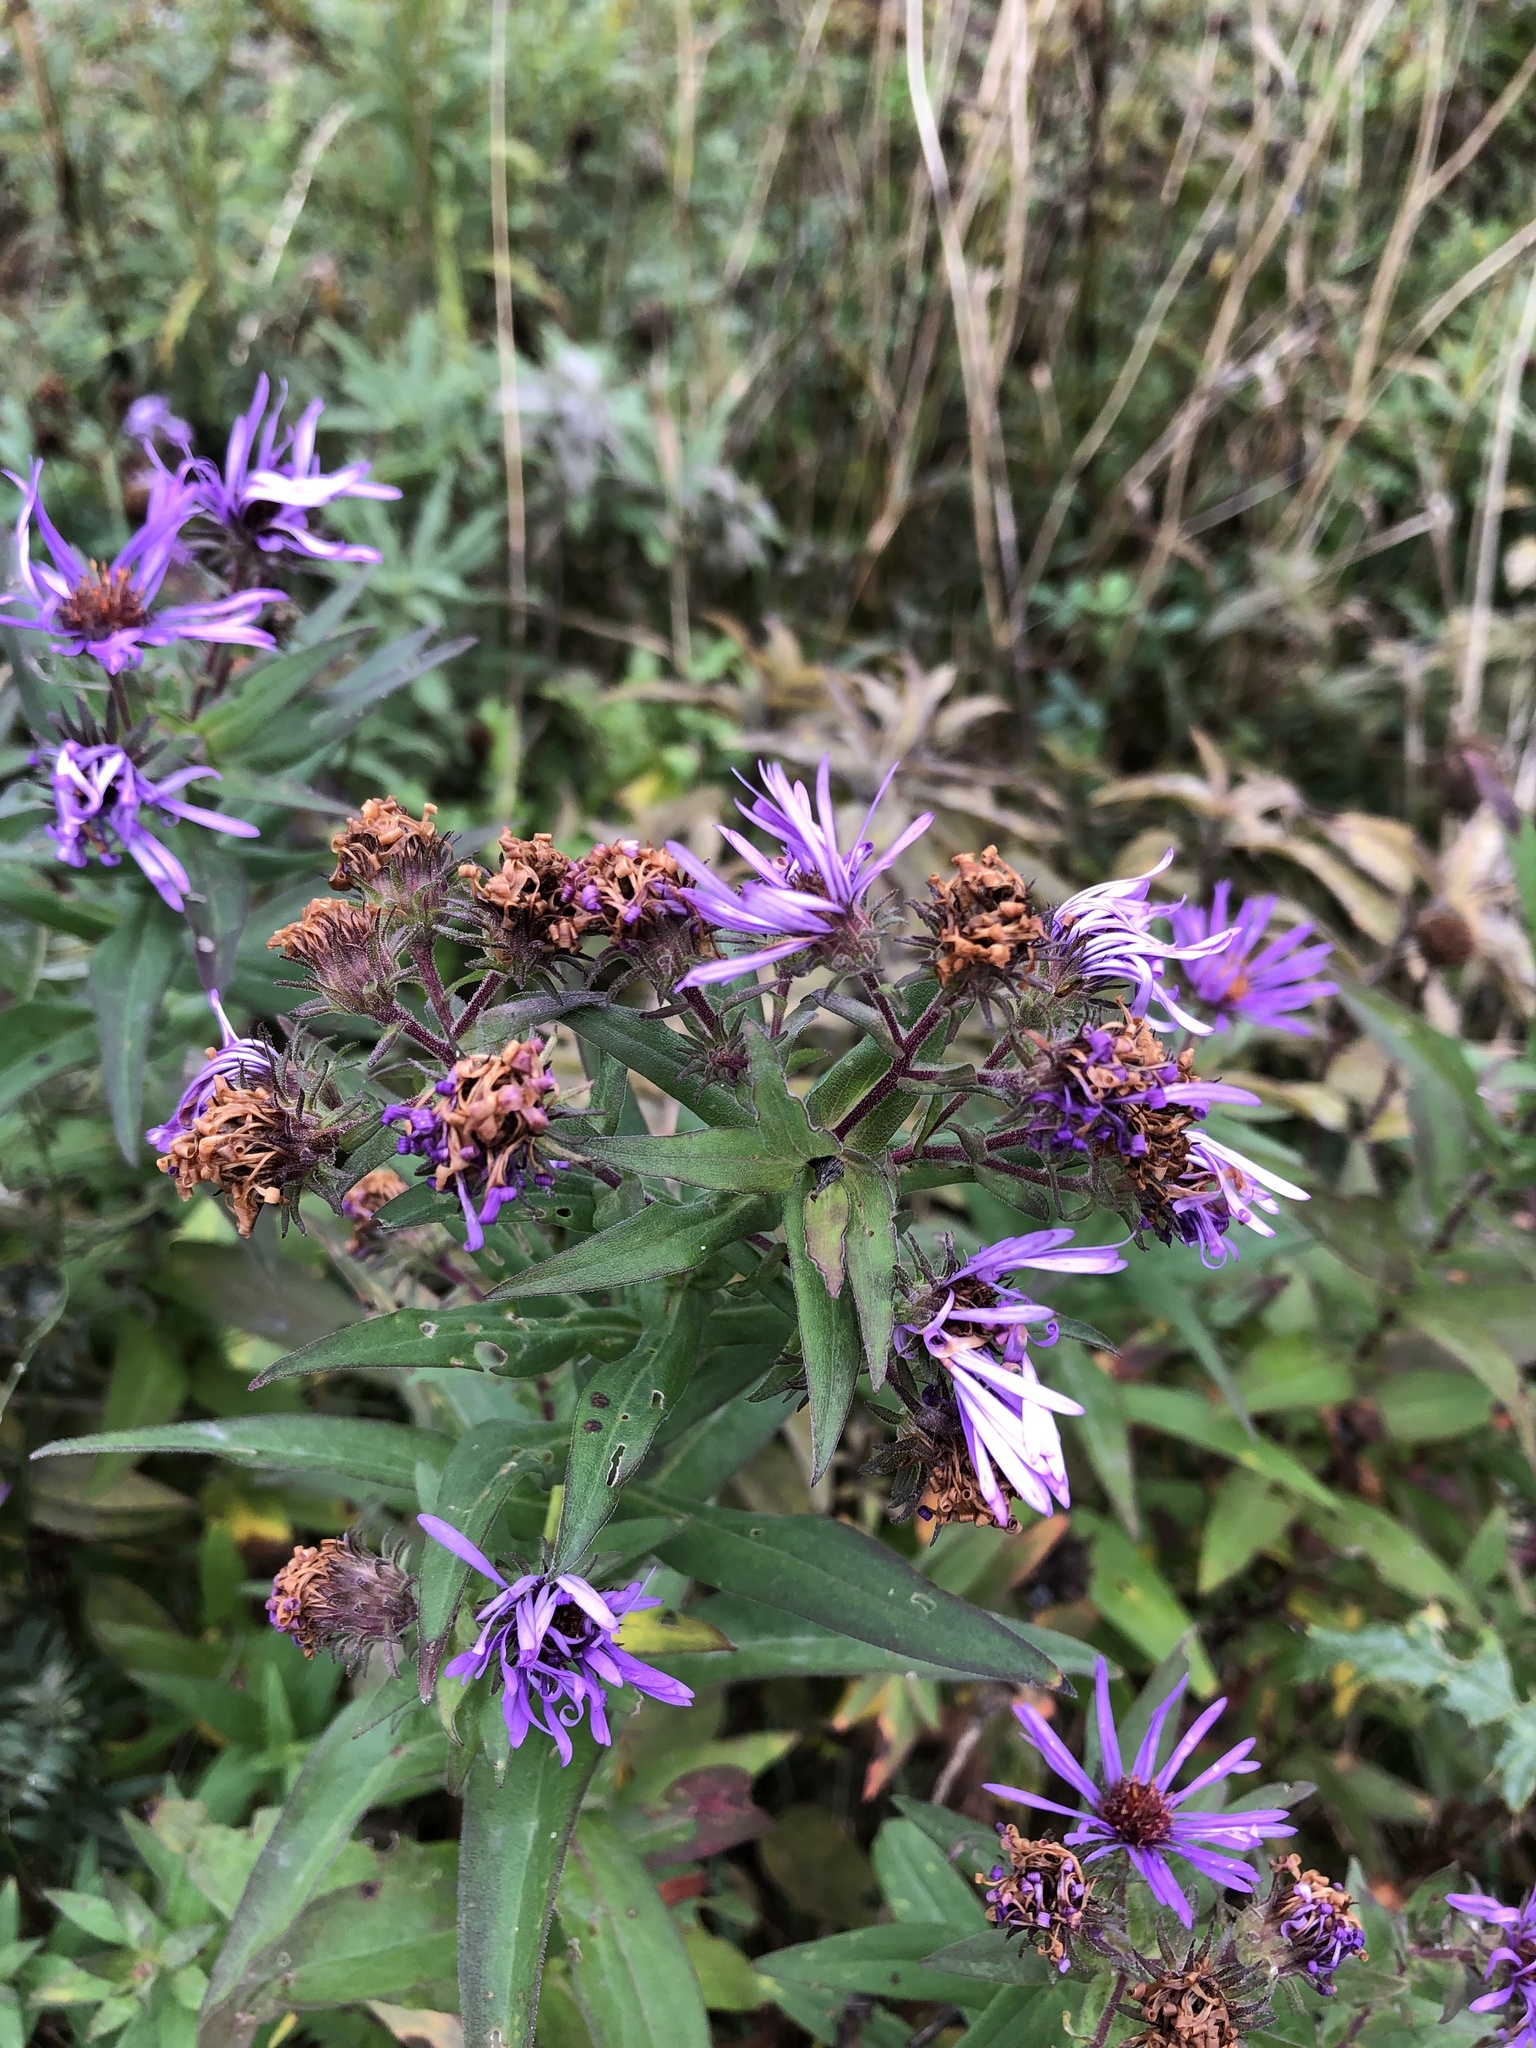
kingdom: Plantae
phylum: Tracheophyta
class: Magnoliopsida
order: Asterales
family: Asteraceae
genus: Symphyotrichum
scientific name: Symphyotrichum novae-angliae
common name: Michaelmas daisy
